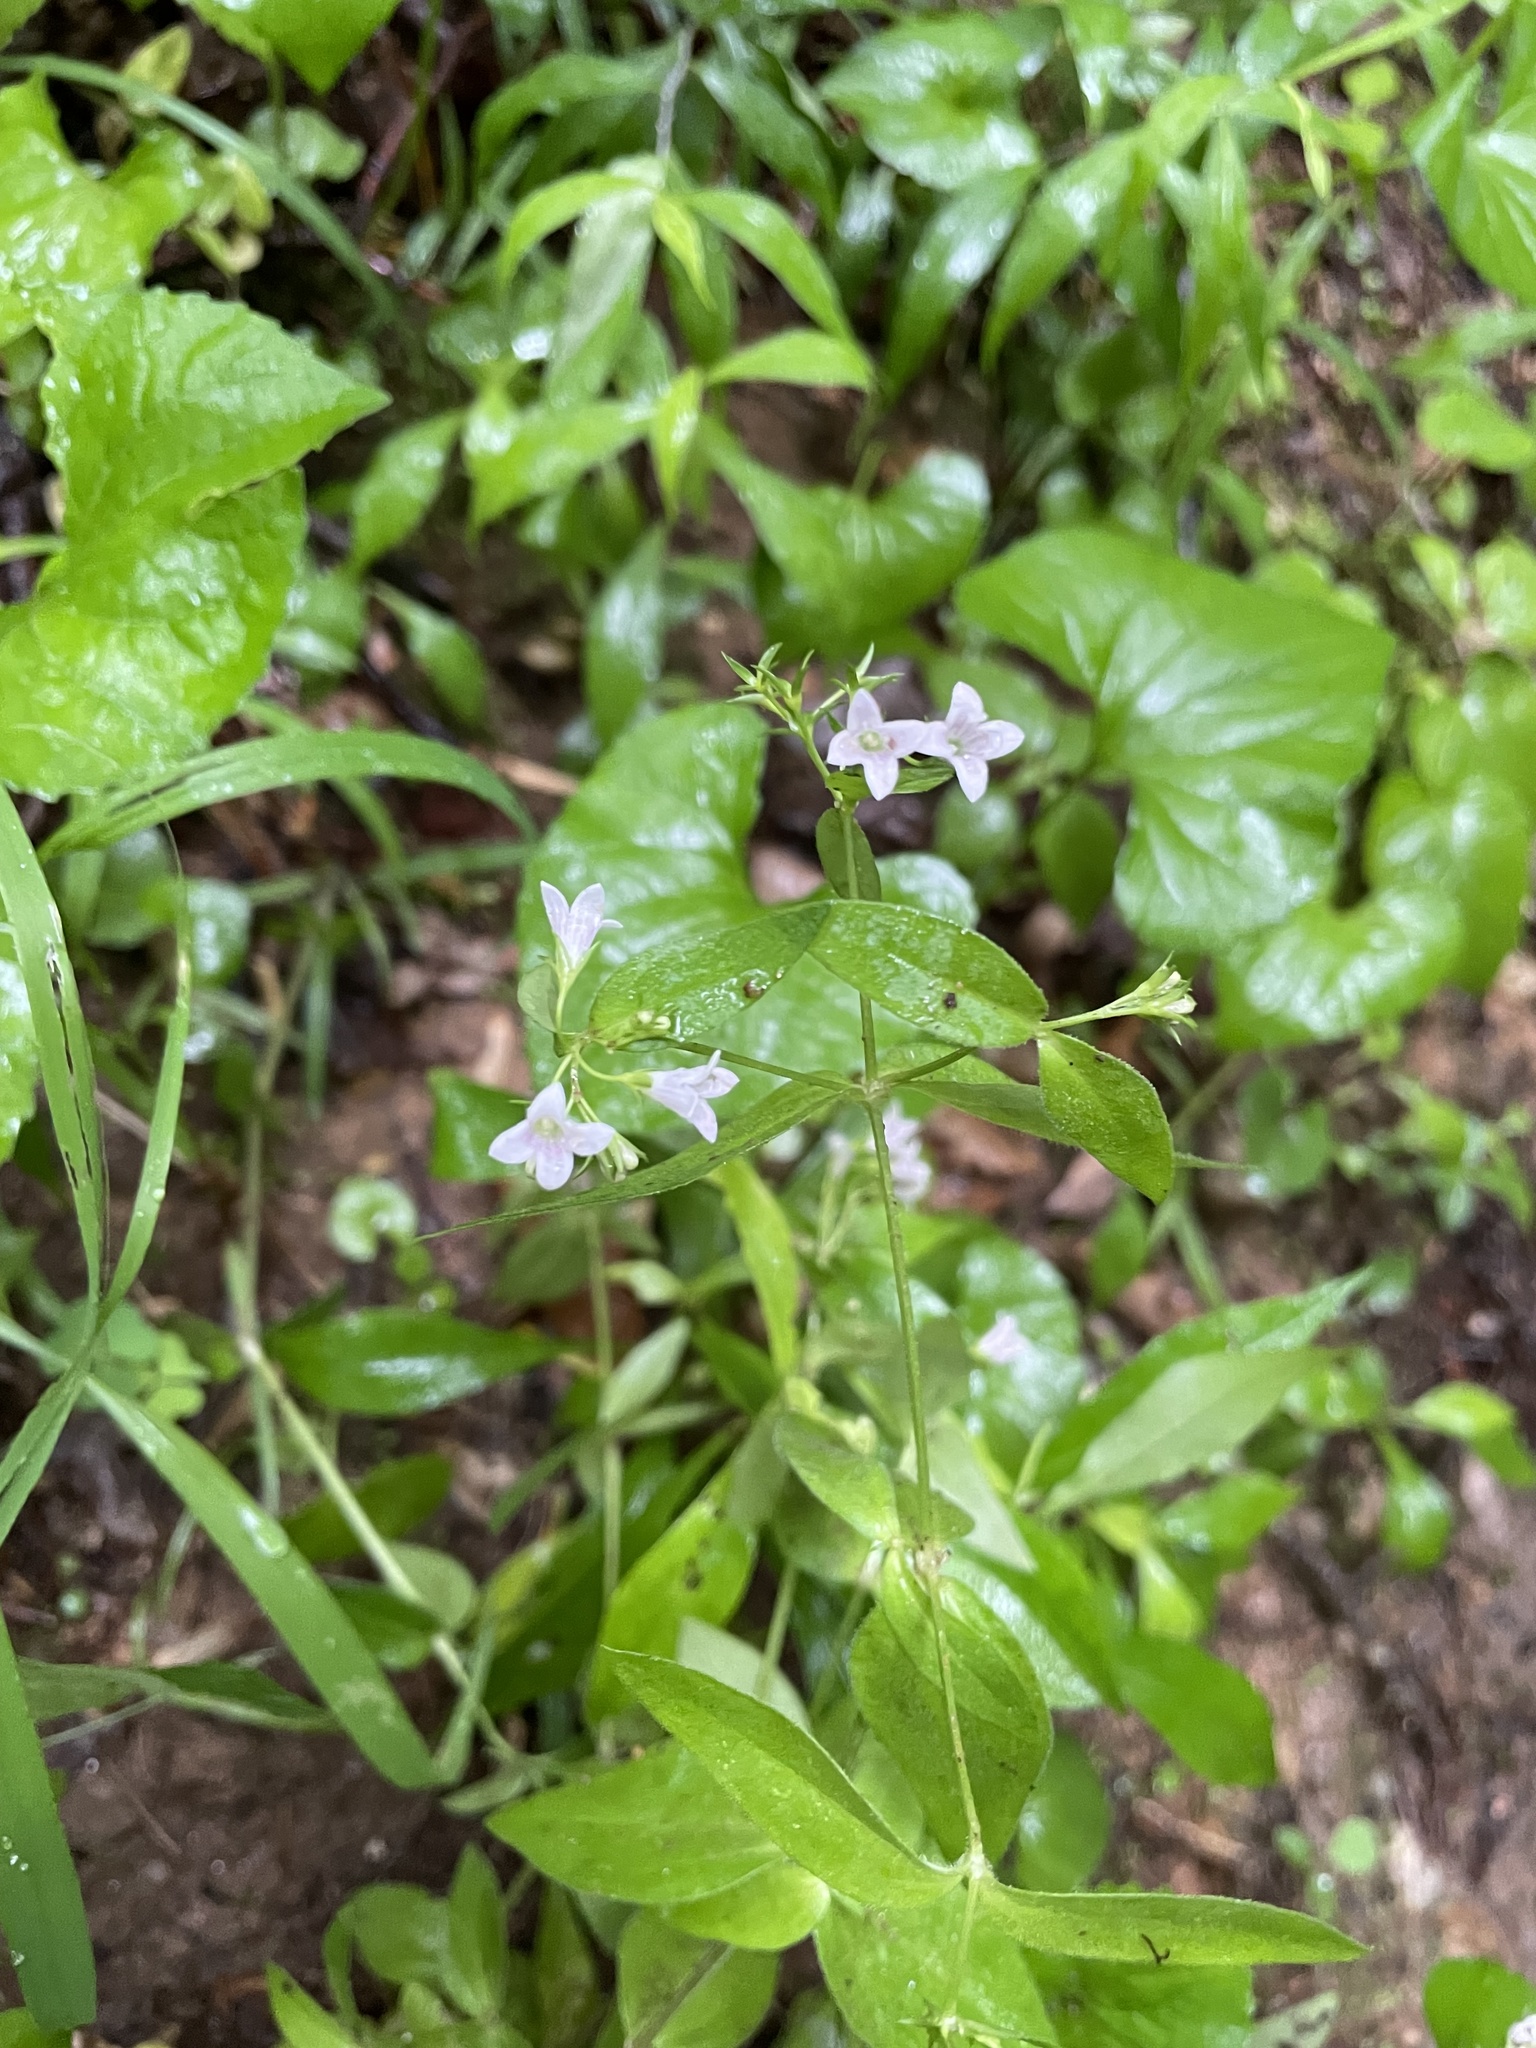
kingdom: Plantae
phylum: Tracheophyta
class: Magnoliopsida
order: Gentianales
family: Rubiaceae
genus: Houstonia
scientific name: Houstonia purpurea
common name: Summer bluet
